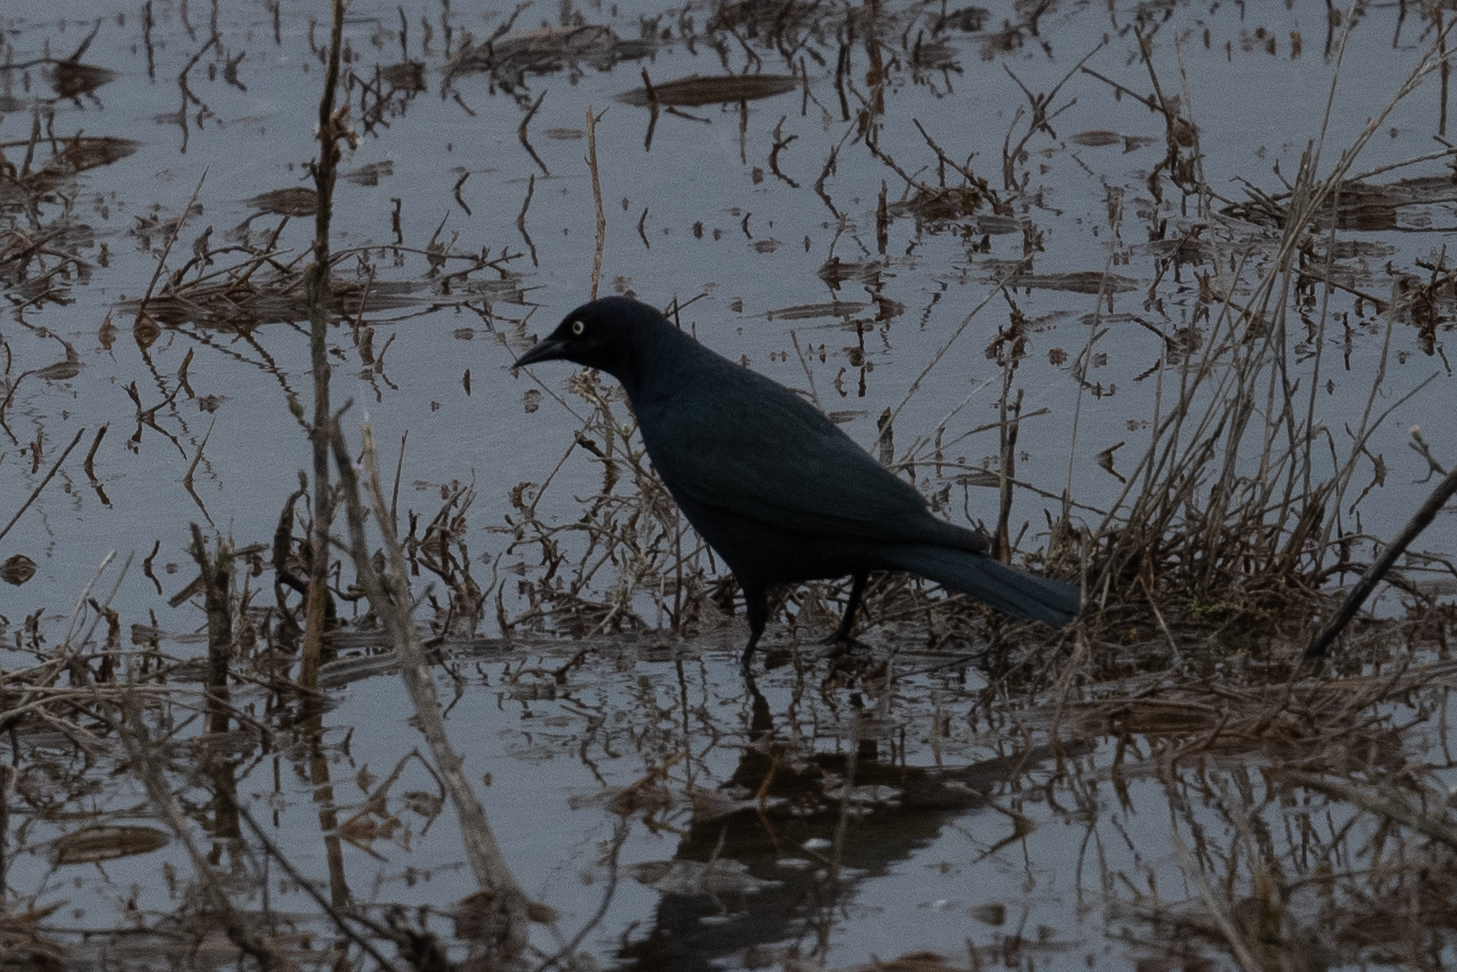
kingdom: Animalia
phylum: Chordata
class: Aves
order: Passeriformes
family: Icteridae
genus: Euphagus
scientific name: Euphagus cyanocephalus
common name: Brewer's blackbird
